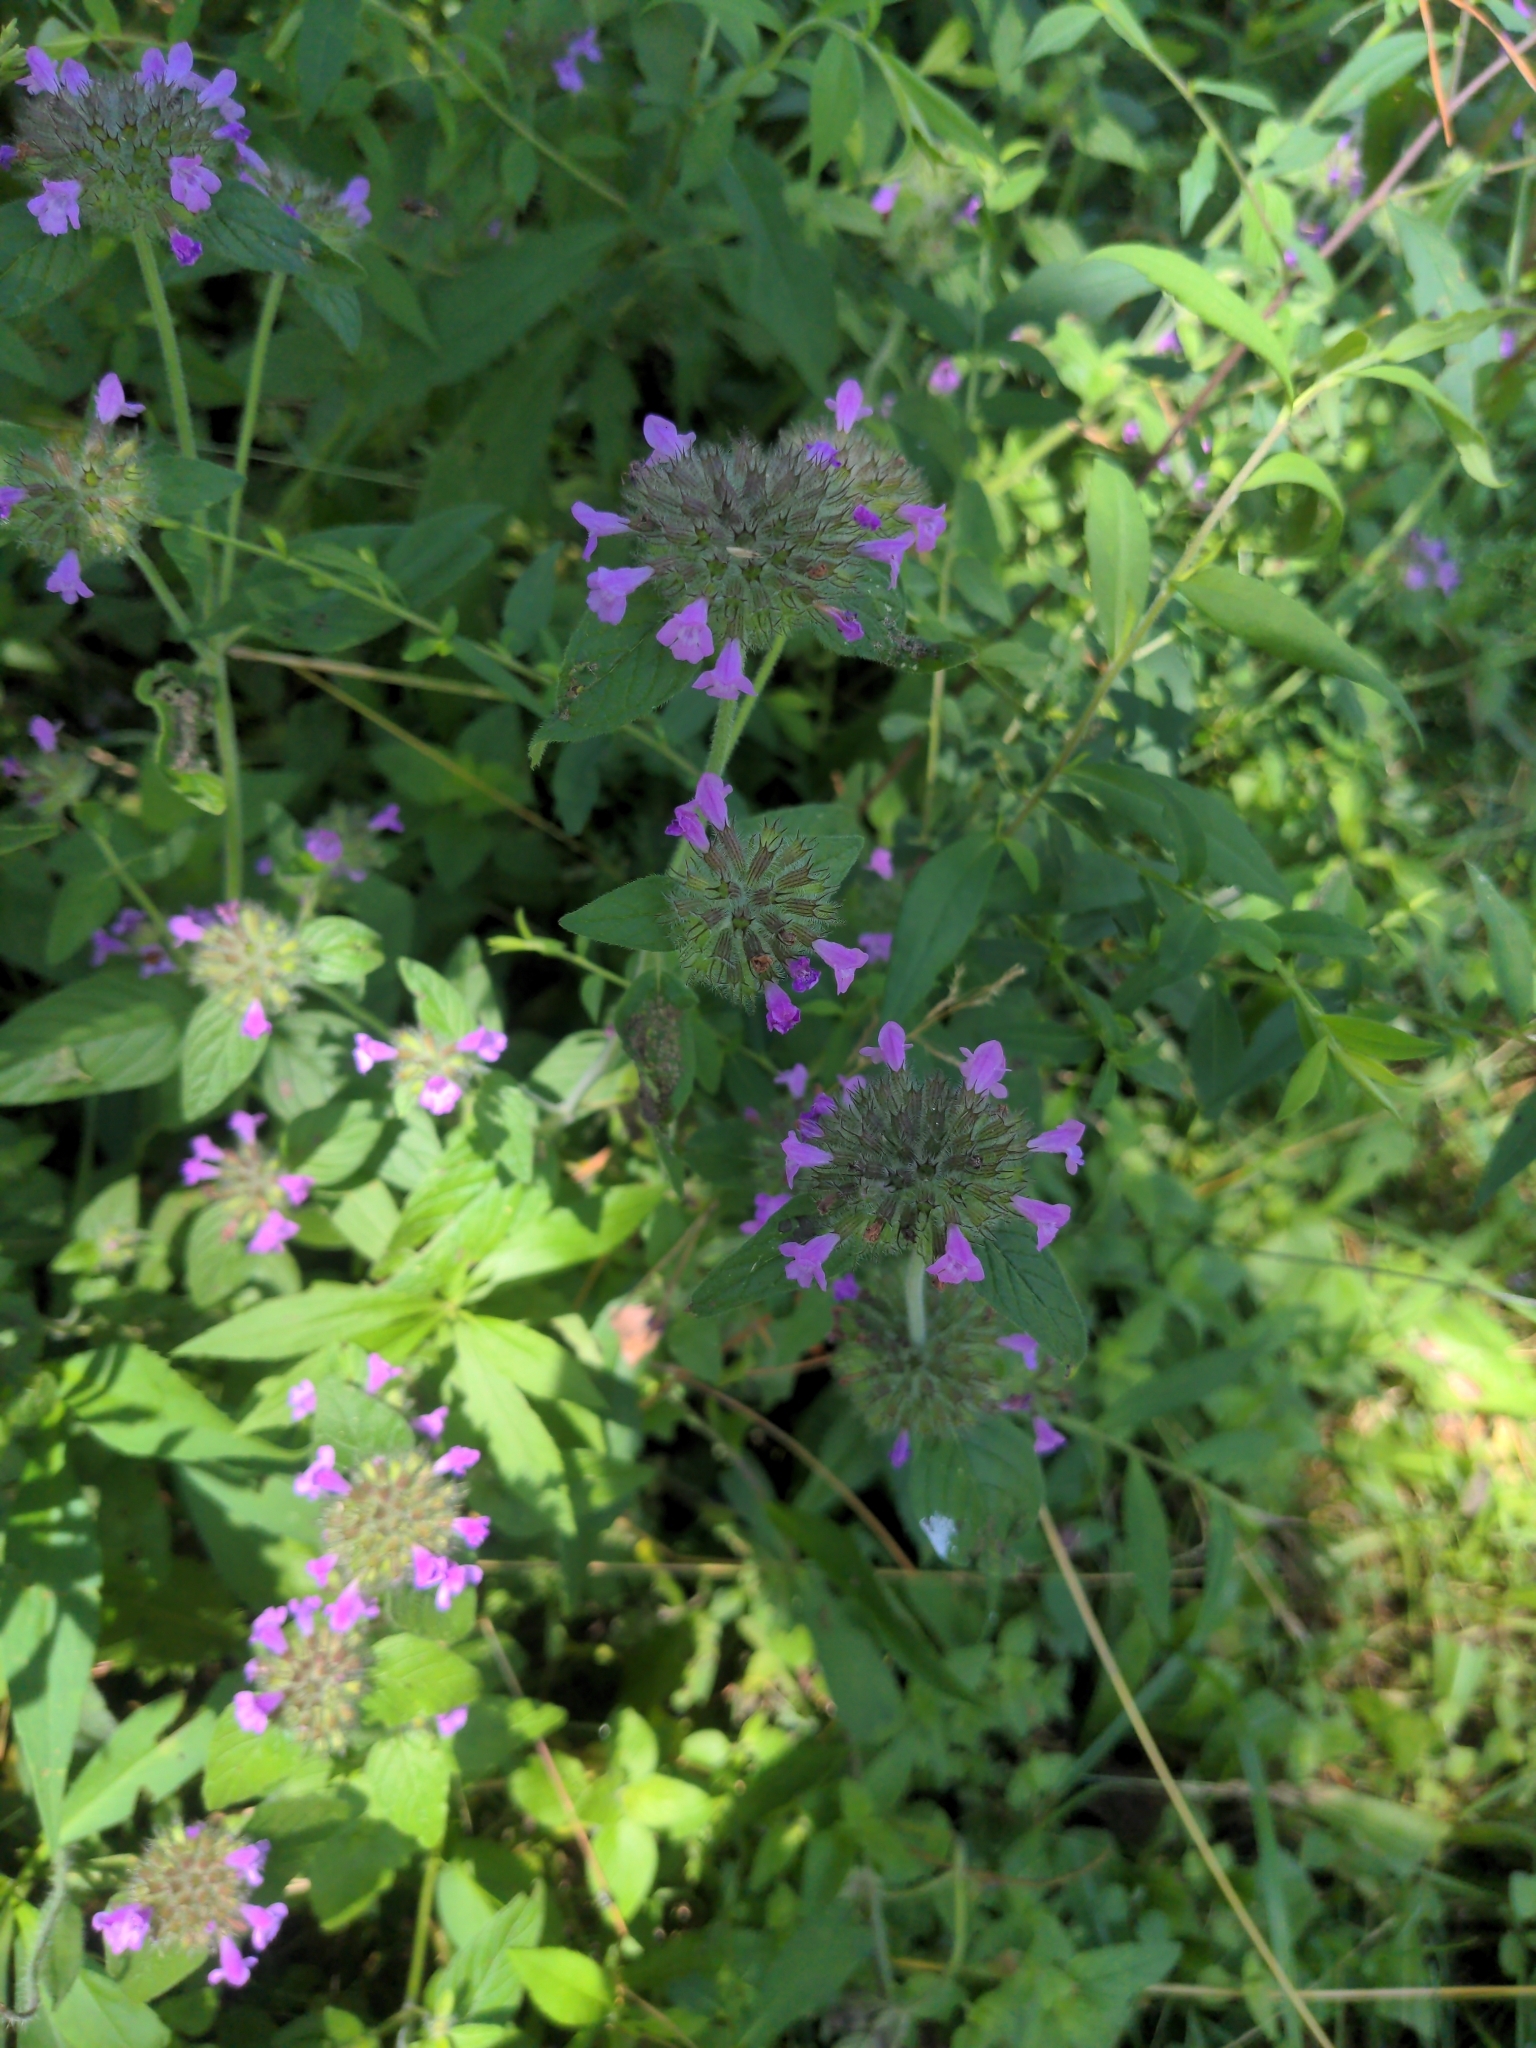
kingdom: Plantae
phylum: Tracheophyta
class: Magnoliopsida
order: Lamiales
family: Lamiaceae
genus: Clinopodium
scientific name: Clinopodium vulgare
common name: Wild basil
